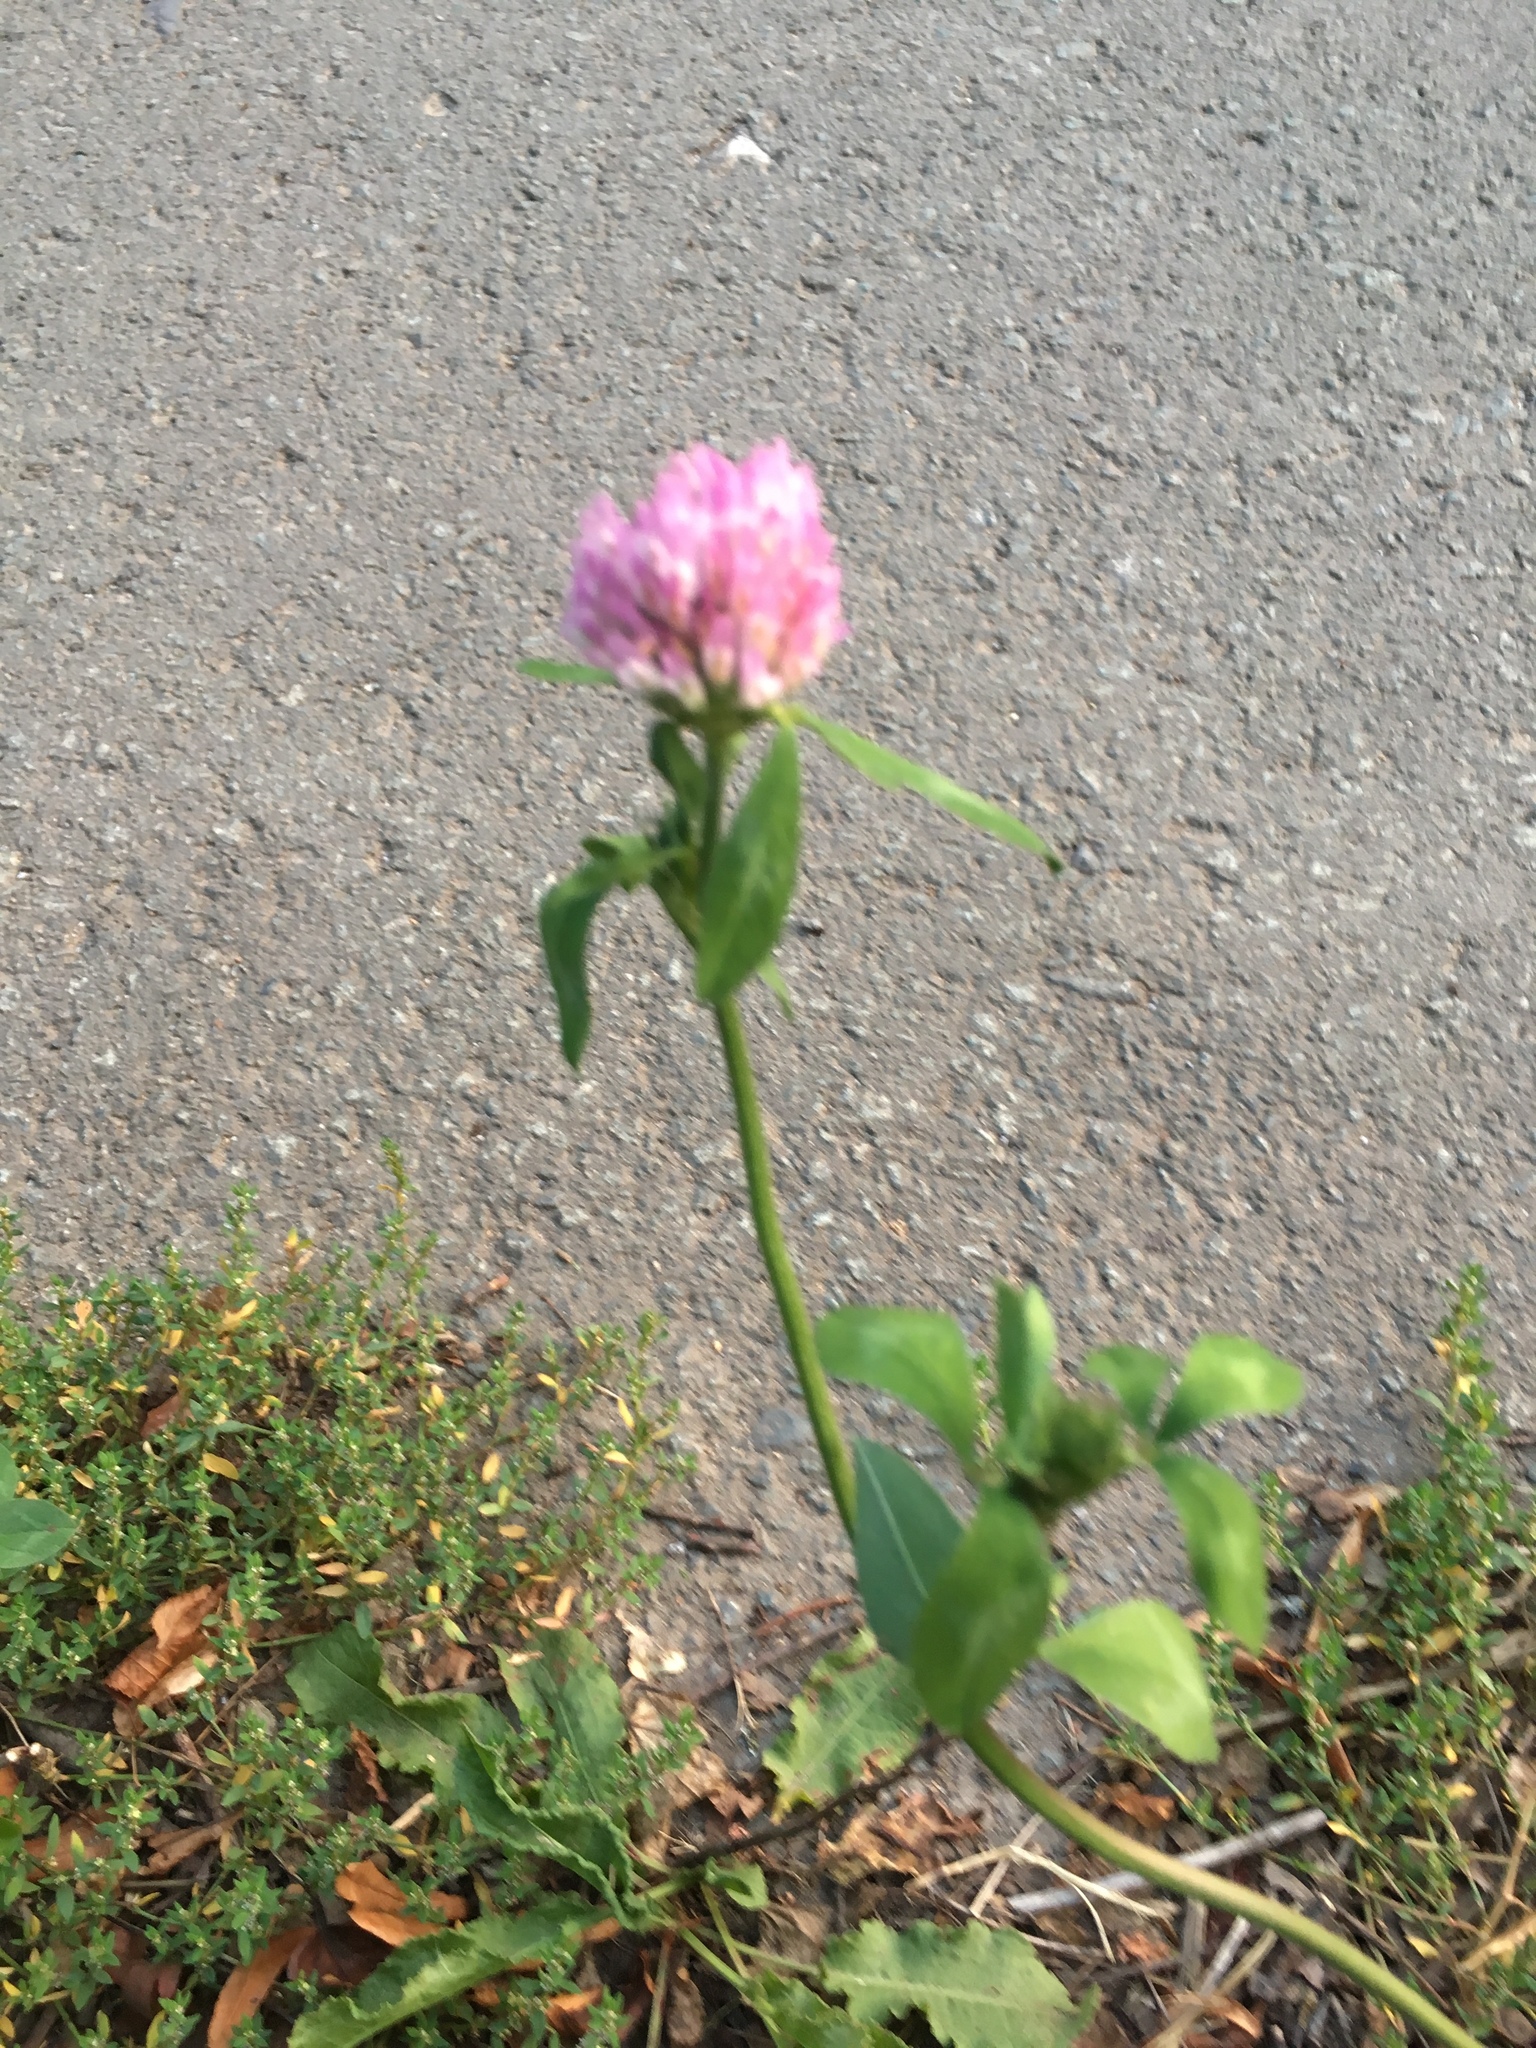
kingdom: Plantae
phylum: Tracheophyta
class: Magnoliopsida
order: Fabales
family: Fabaceae
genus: Trifolium
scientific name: Trifolium pratense
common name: Red clover
